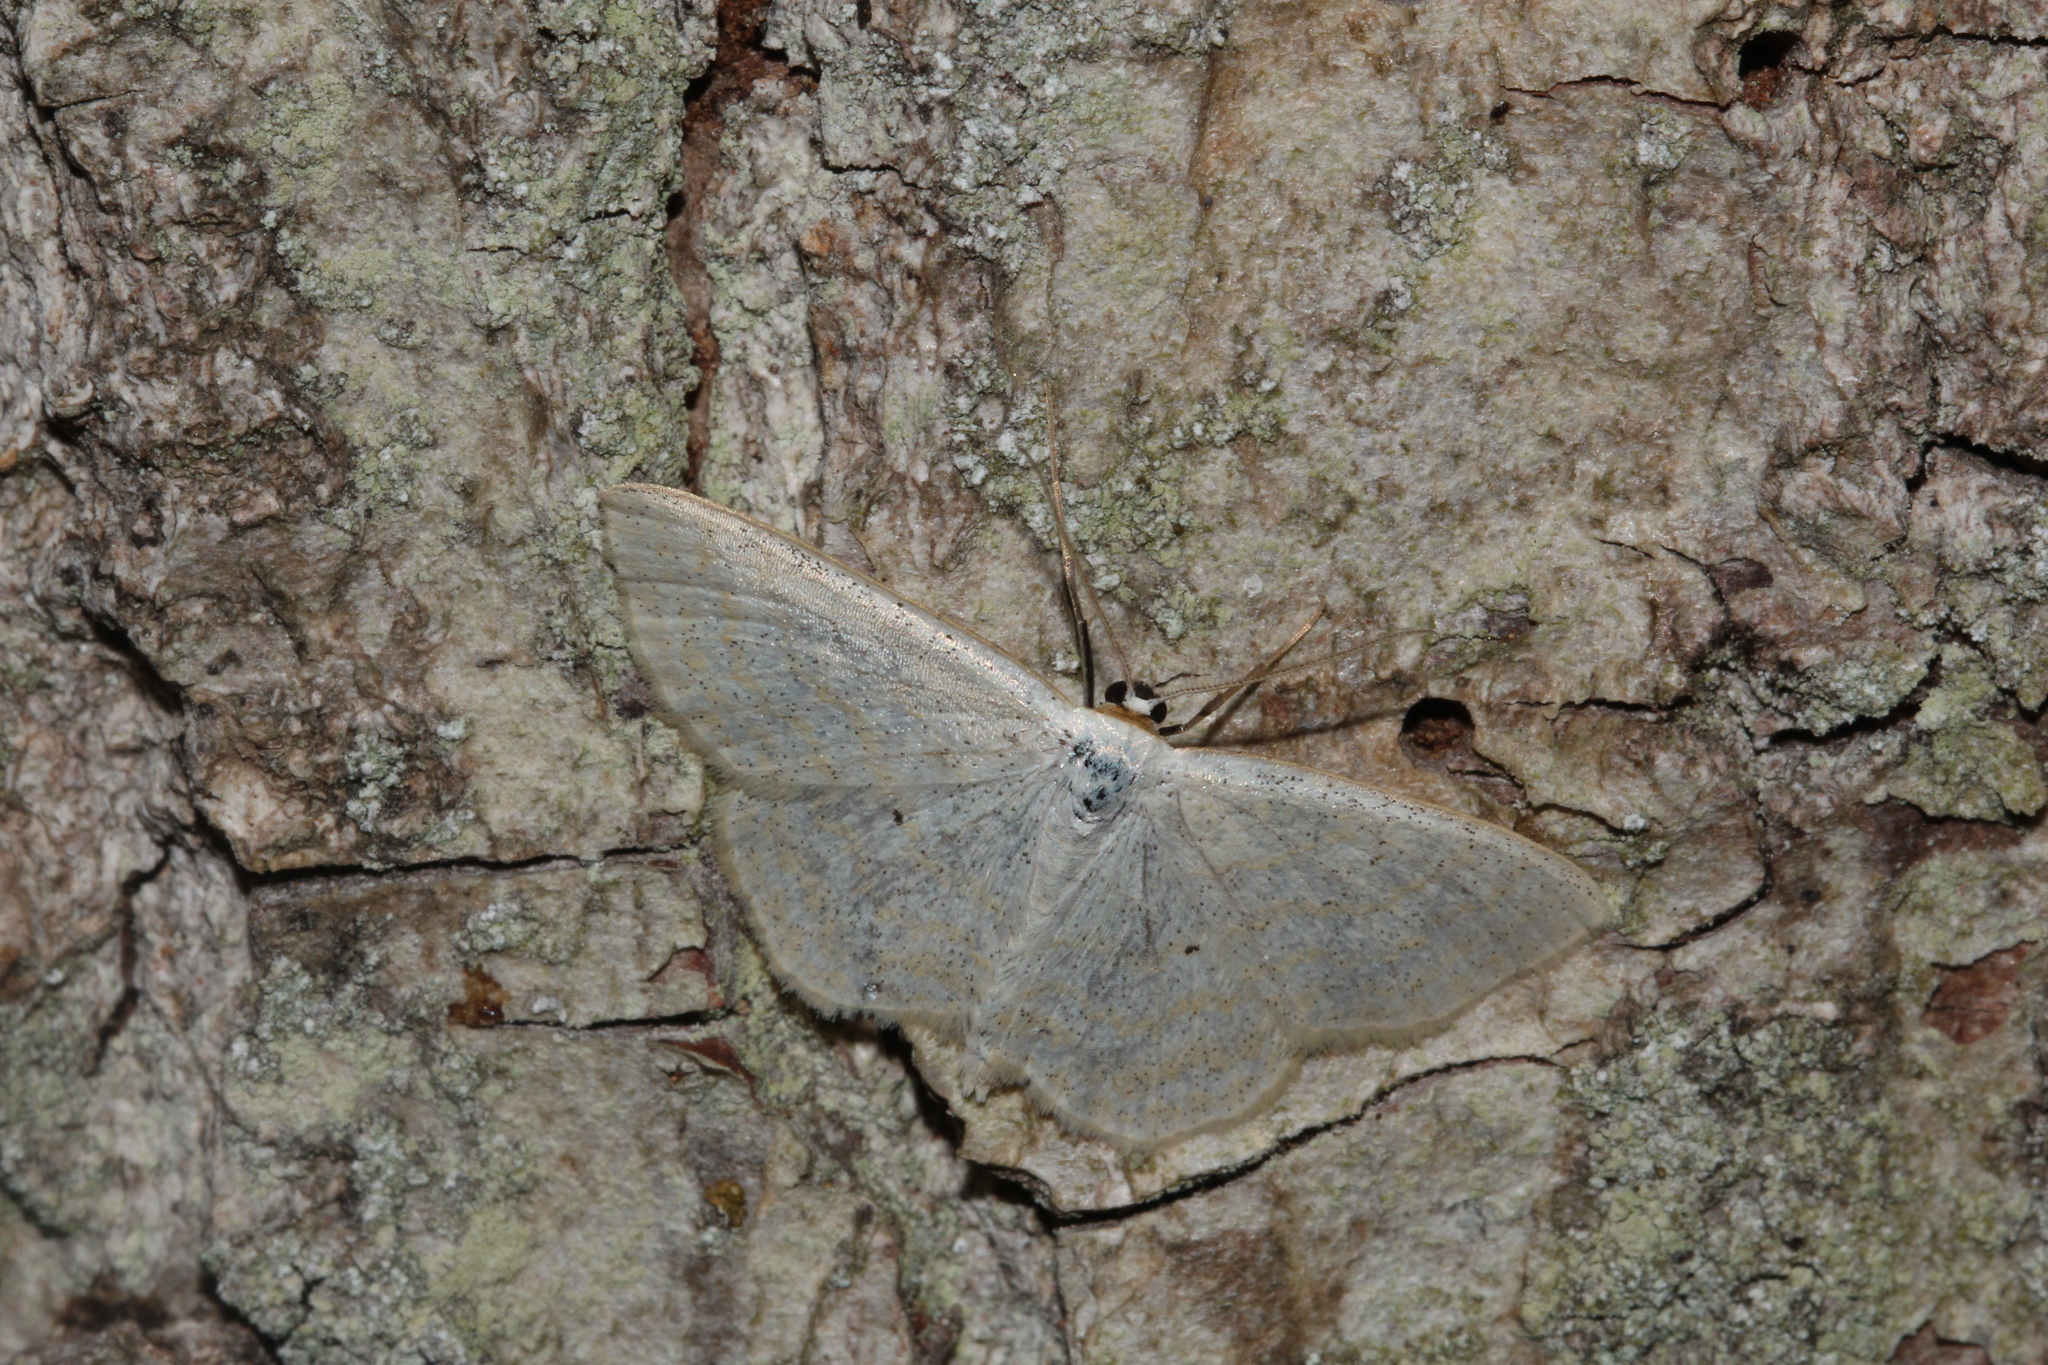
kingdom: Animalia
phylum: Arthropoda
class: Insecta
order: Lepidoptera
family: Geometridae
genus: Scopula
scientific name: Scopula immutata
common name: Lesser cream wave
